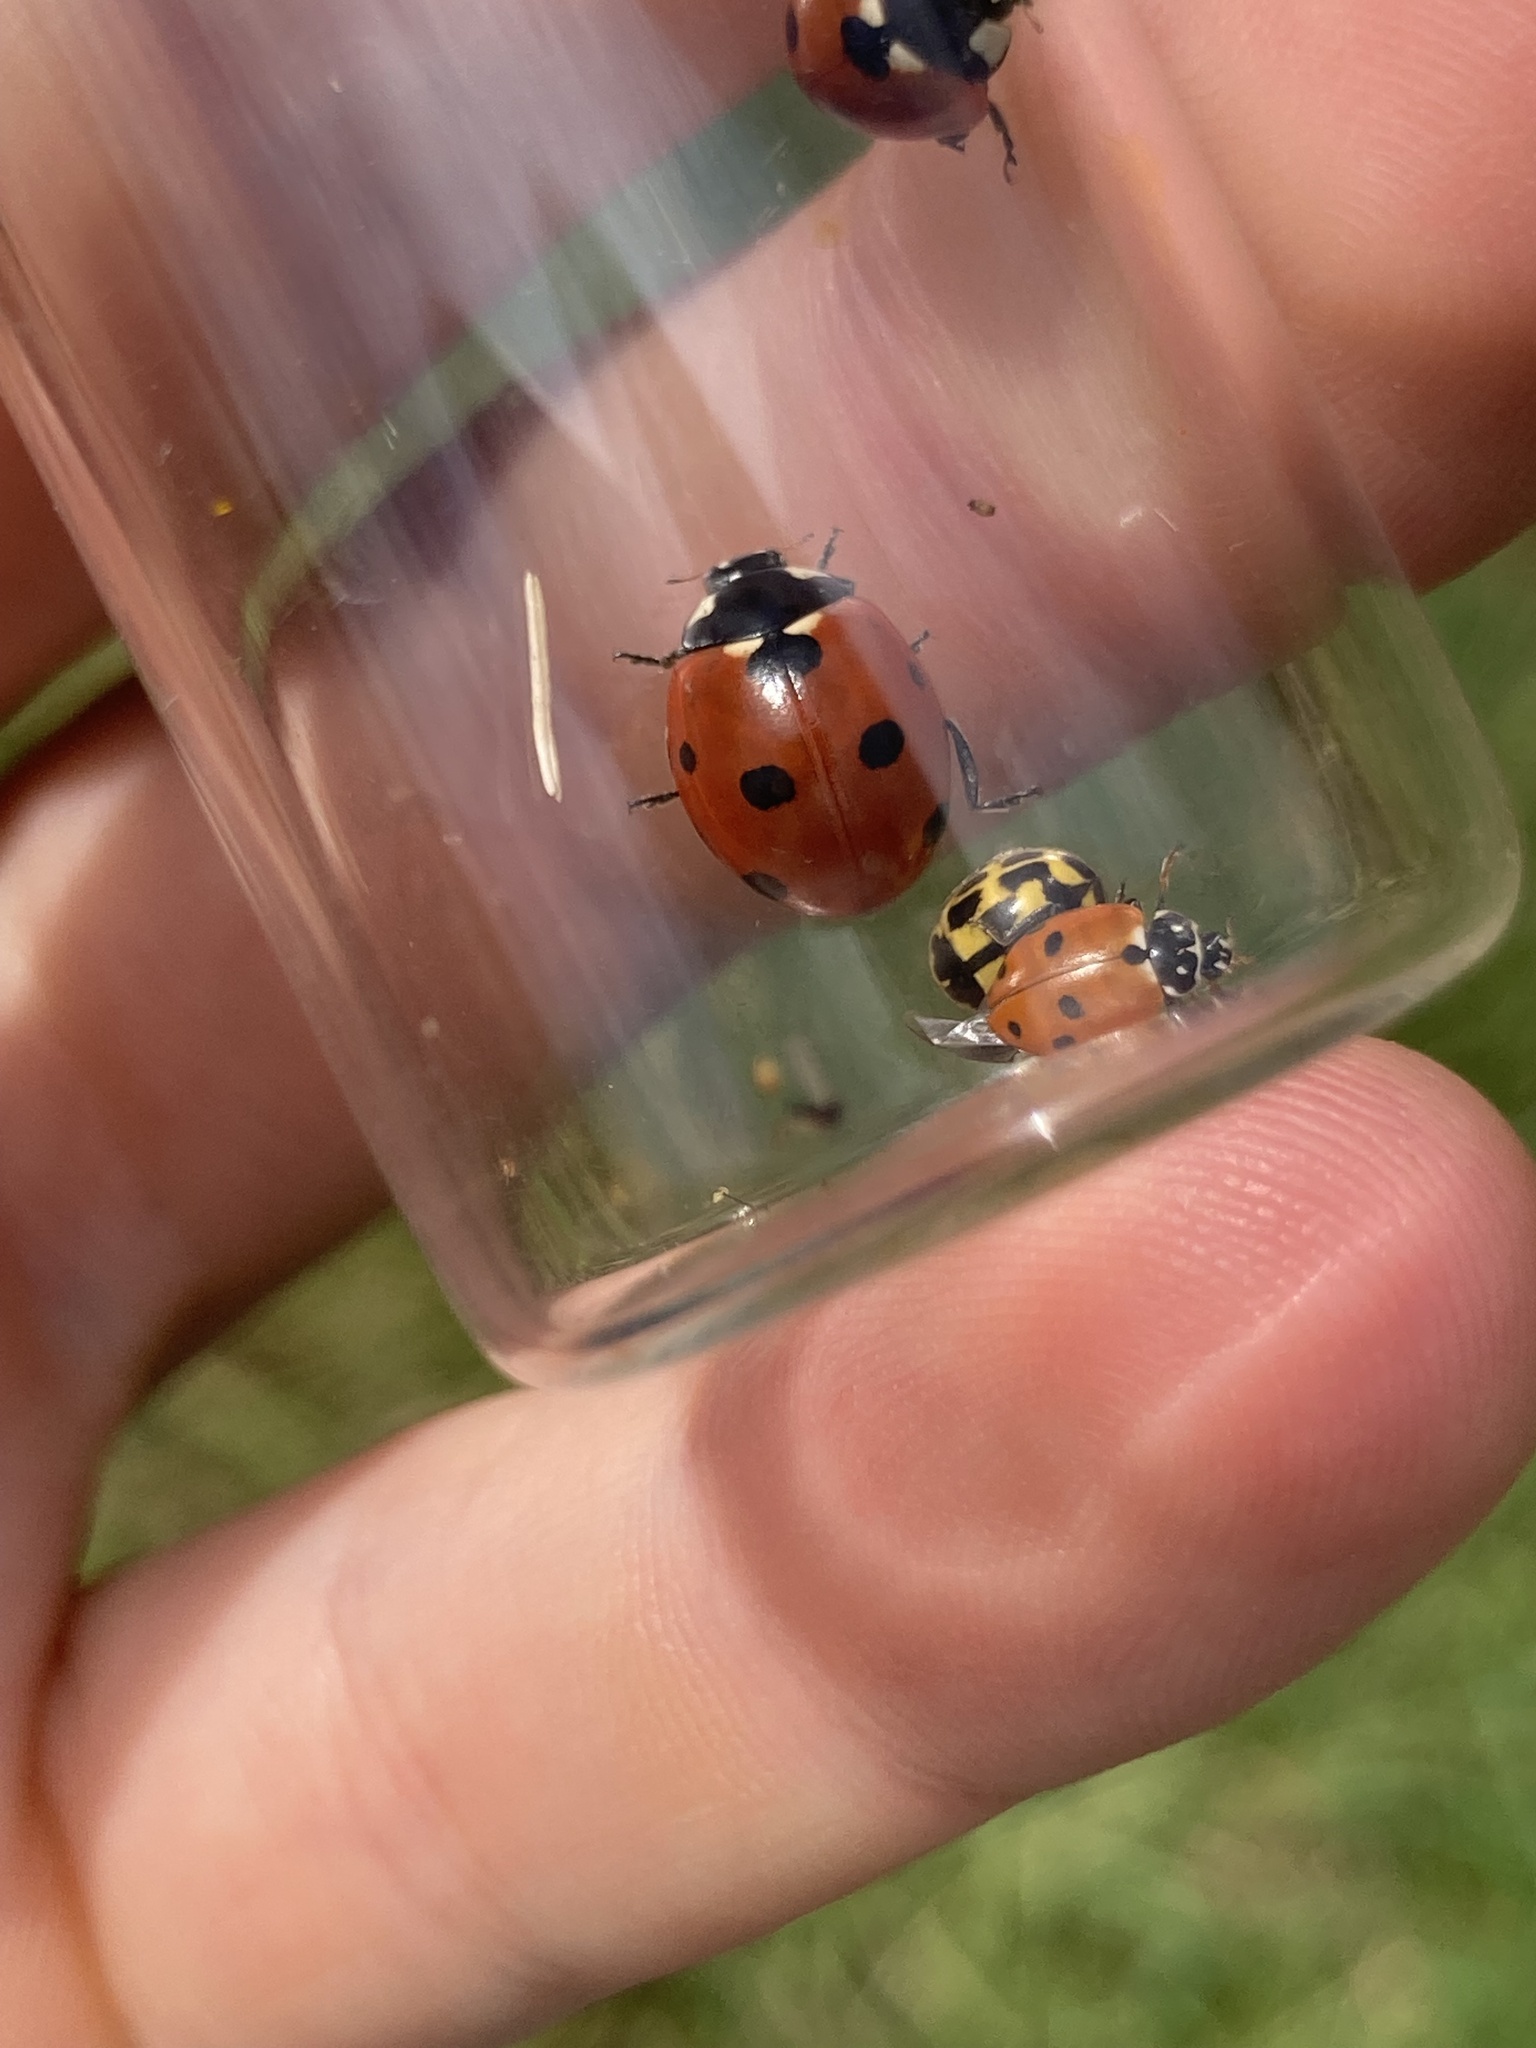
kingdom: Animalia
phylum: Arthropoda
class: Insecta
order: Coleoptera
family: Coccinellidae
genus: Coccinella
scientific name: Coccinella septempunctata
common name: Sevenspotted lady beetle
